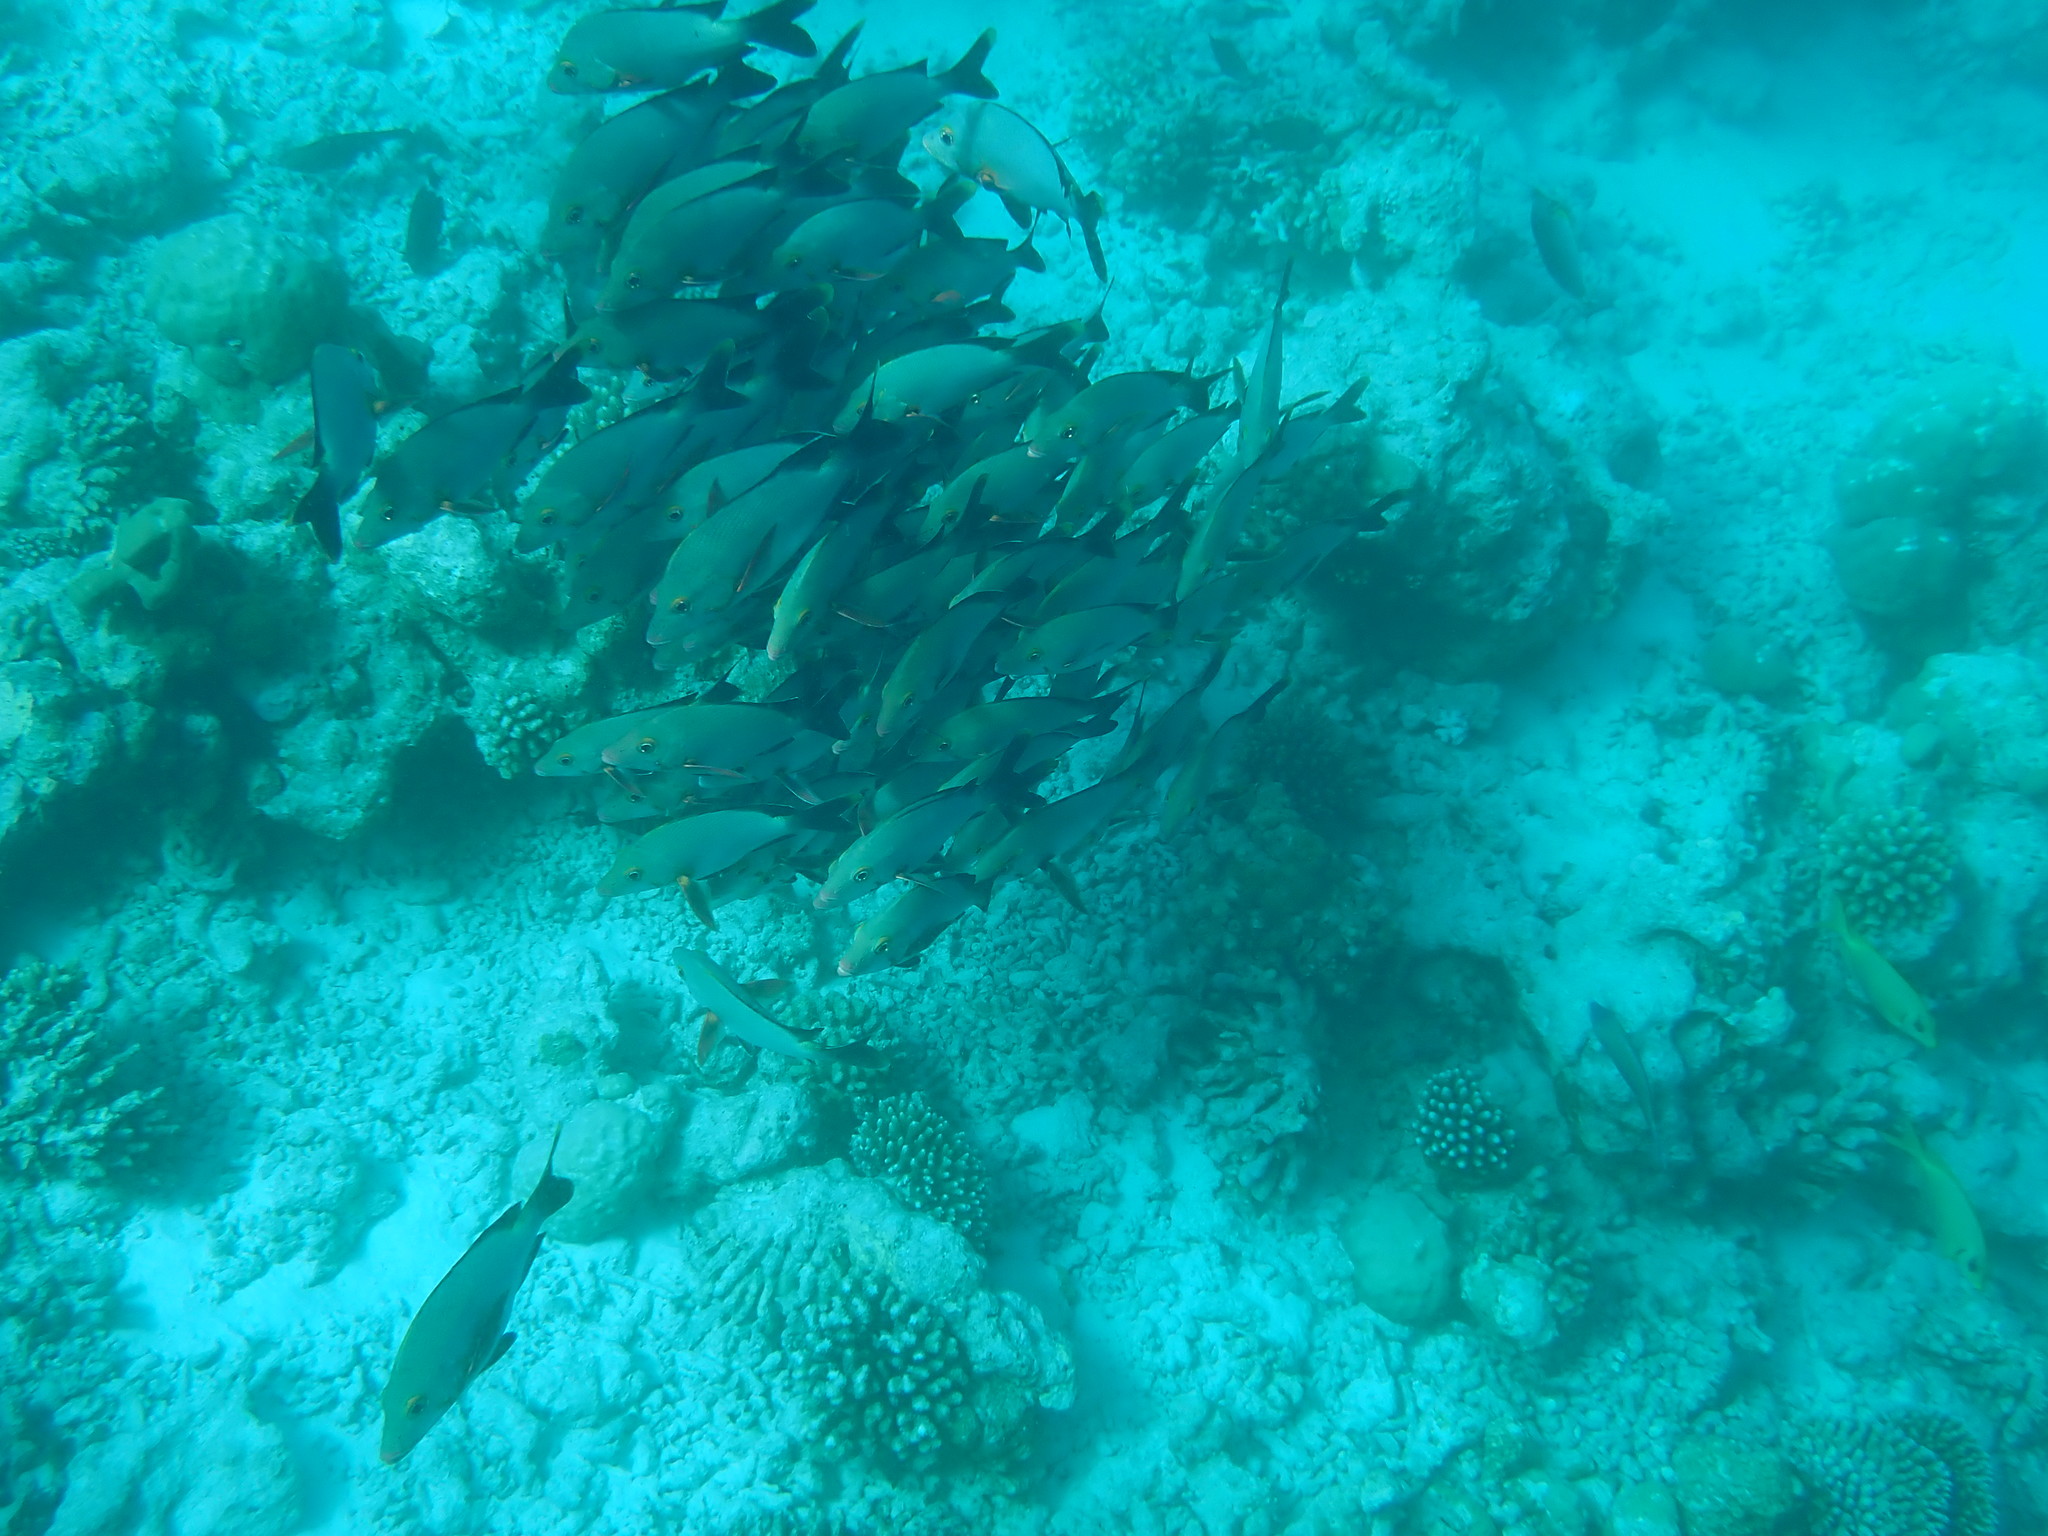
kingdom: Animalia
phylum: Chordata
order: Perciformes
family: Lutjanidae
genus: Lutjanus
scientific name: Lutjanus gibbus
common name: Humpback snapper
